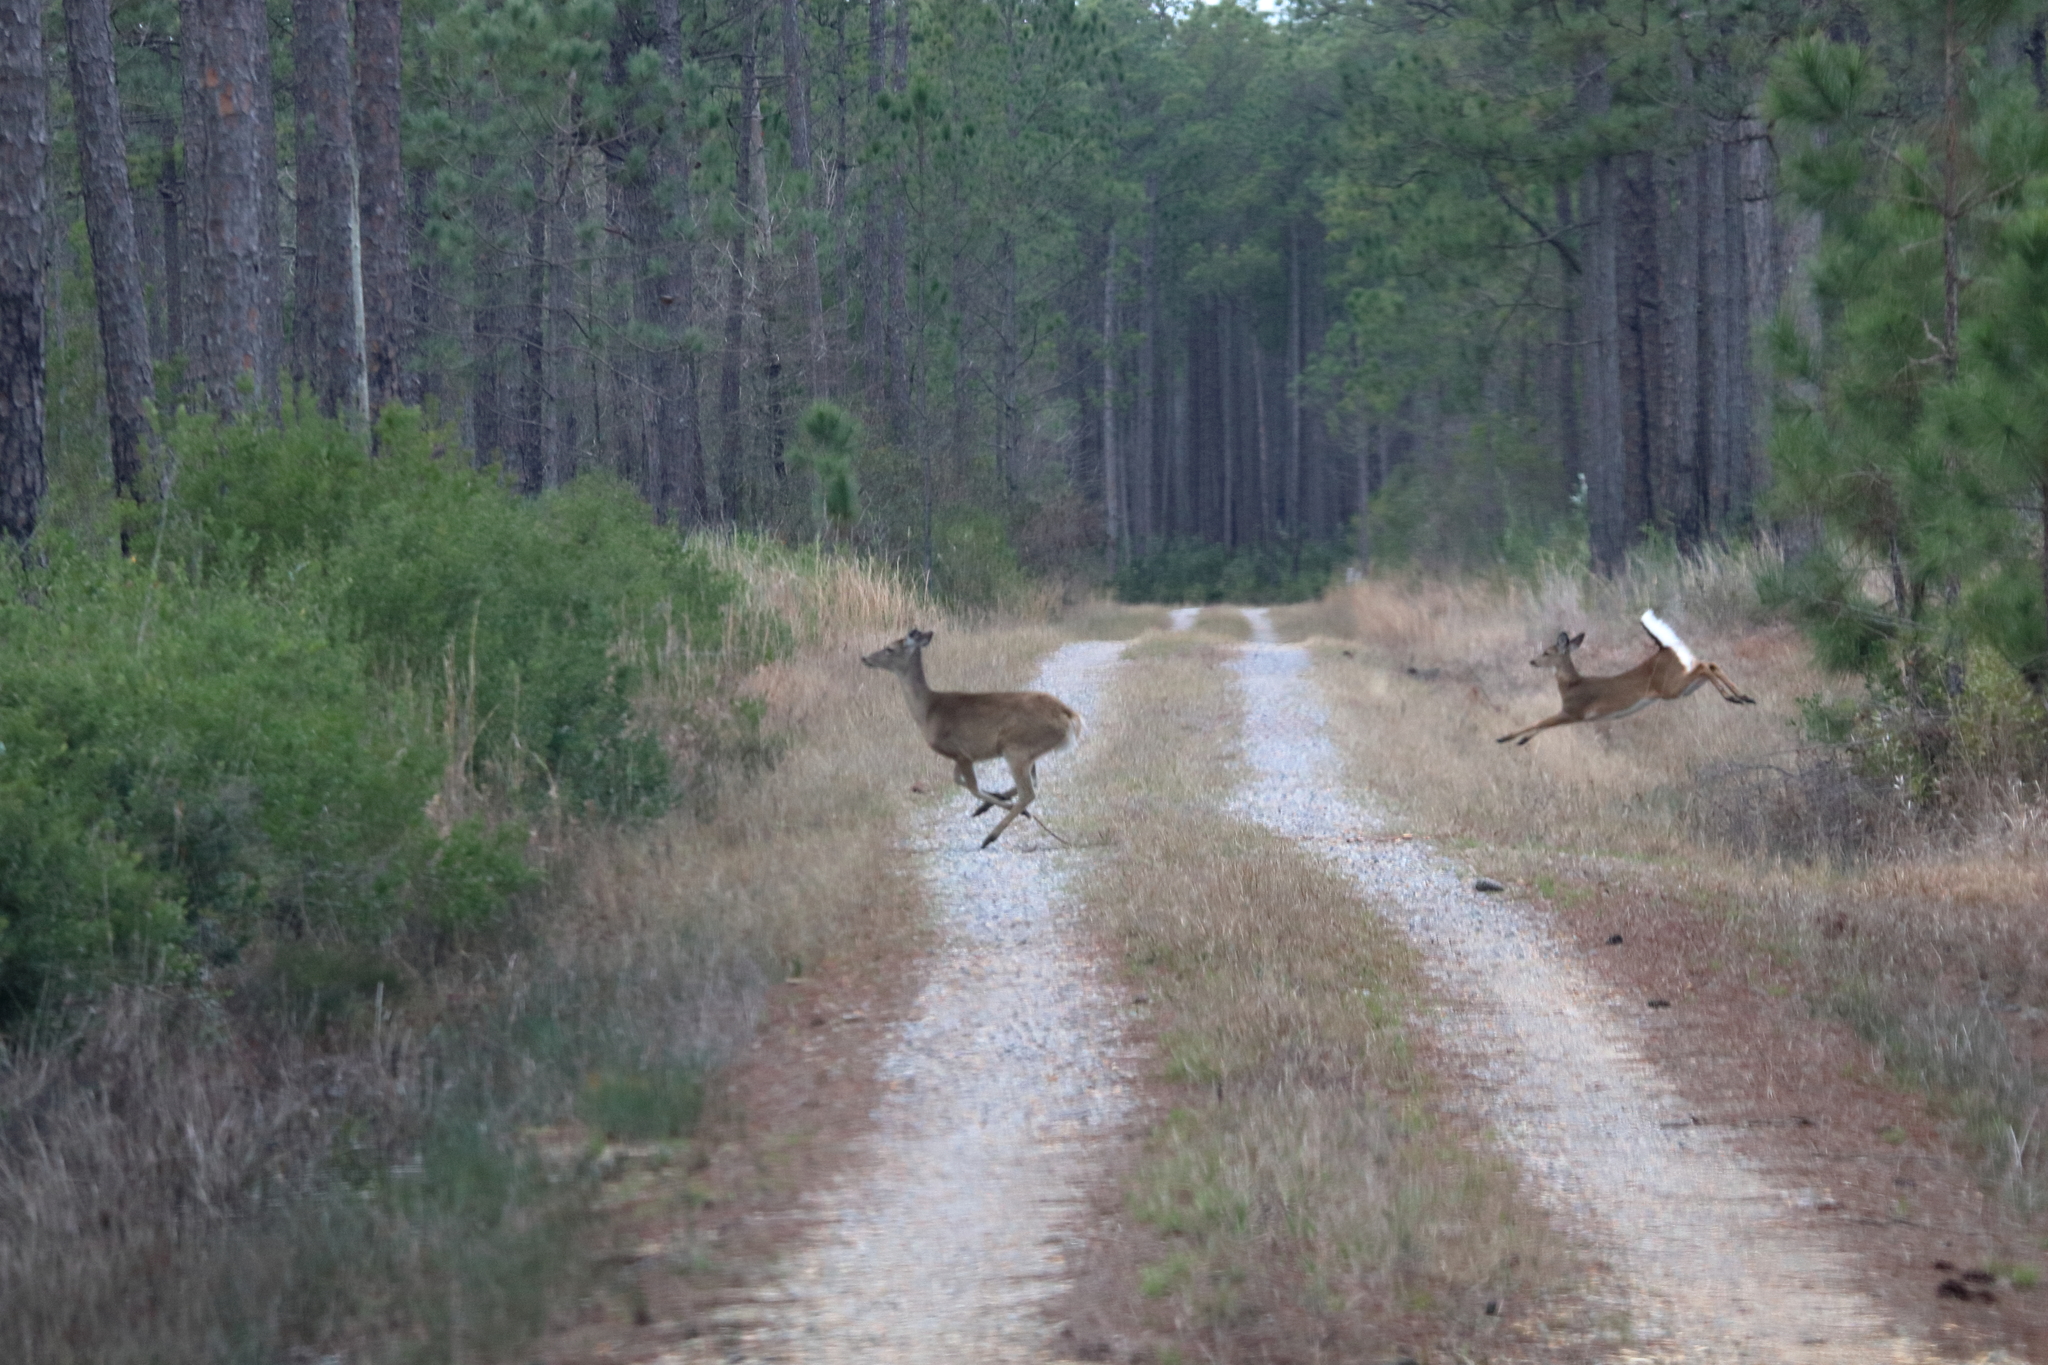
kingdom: Animalia
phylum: Chordata
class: Mammalia
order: Artiodactyla
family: Cervidae
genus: Odocoileus
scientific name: Odocoileus virginianus
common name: White-tailed deer
